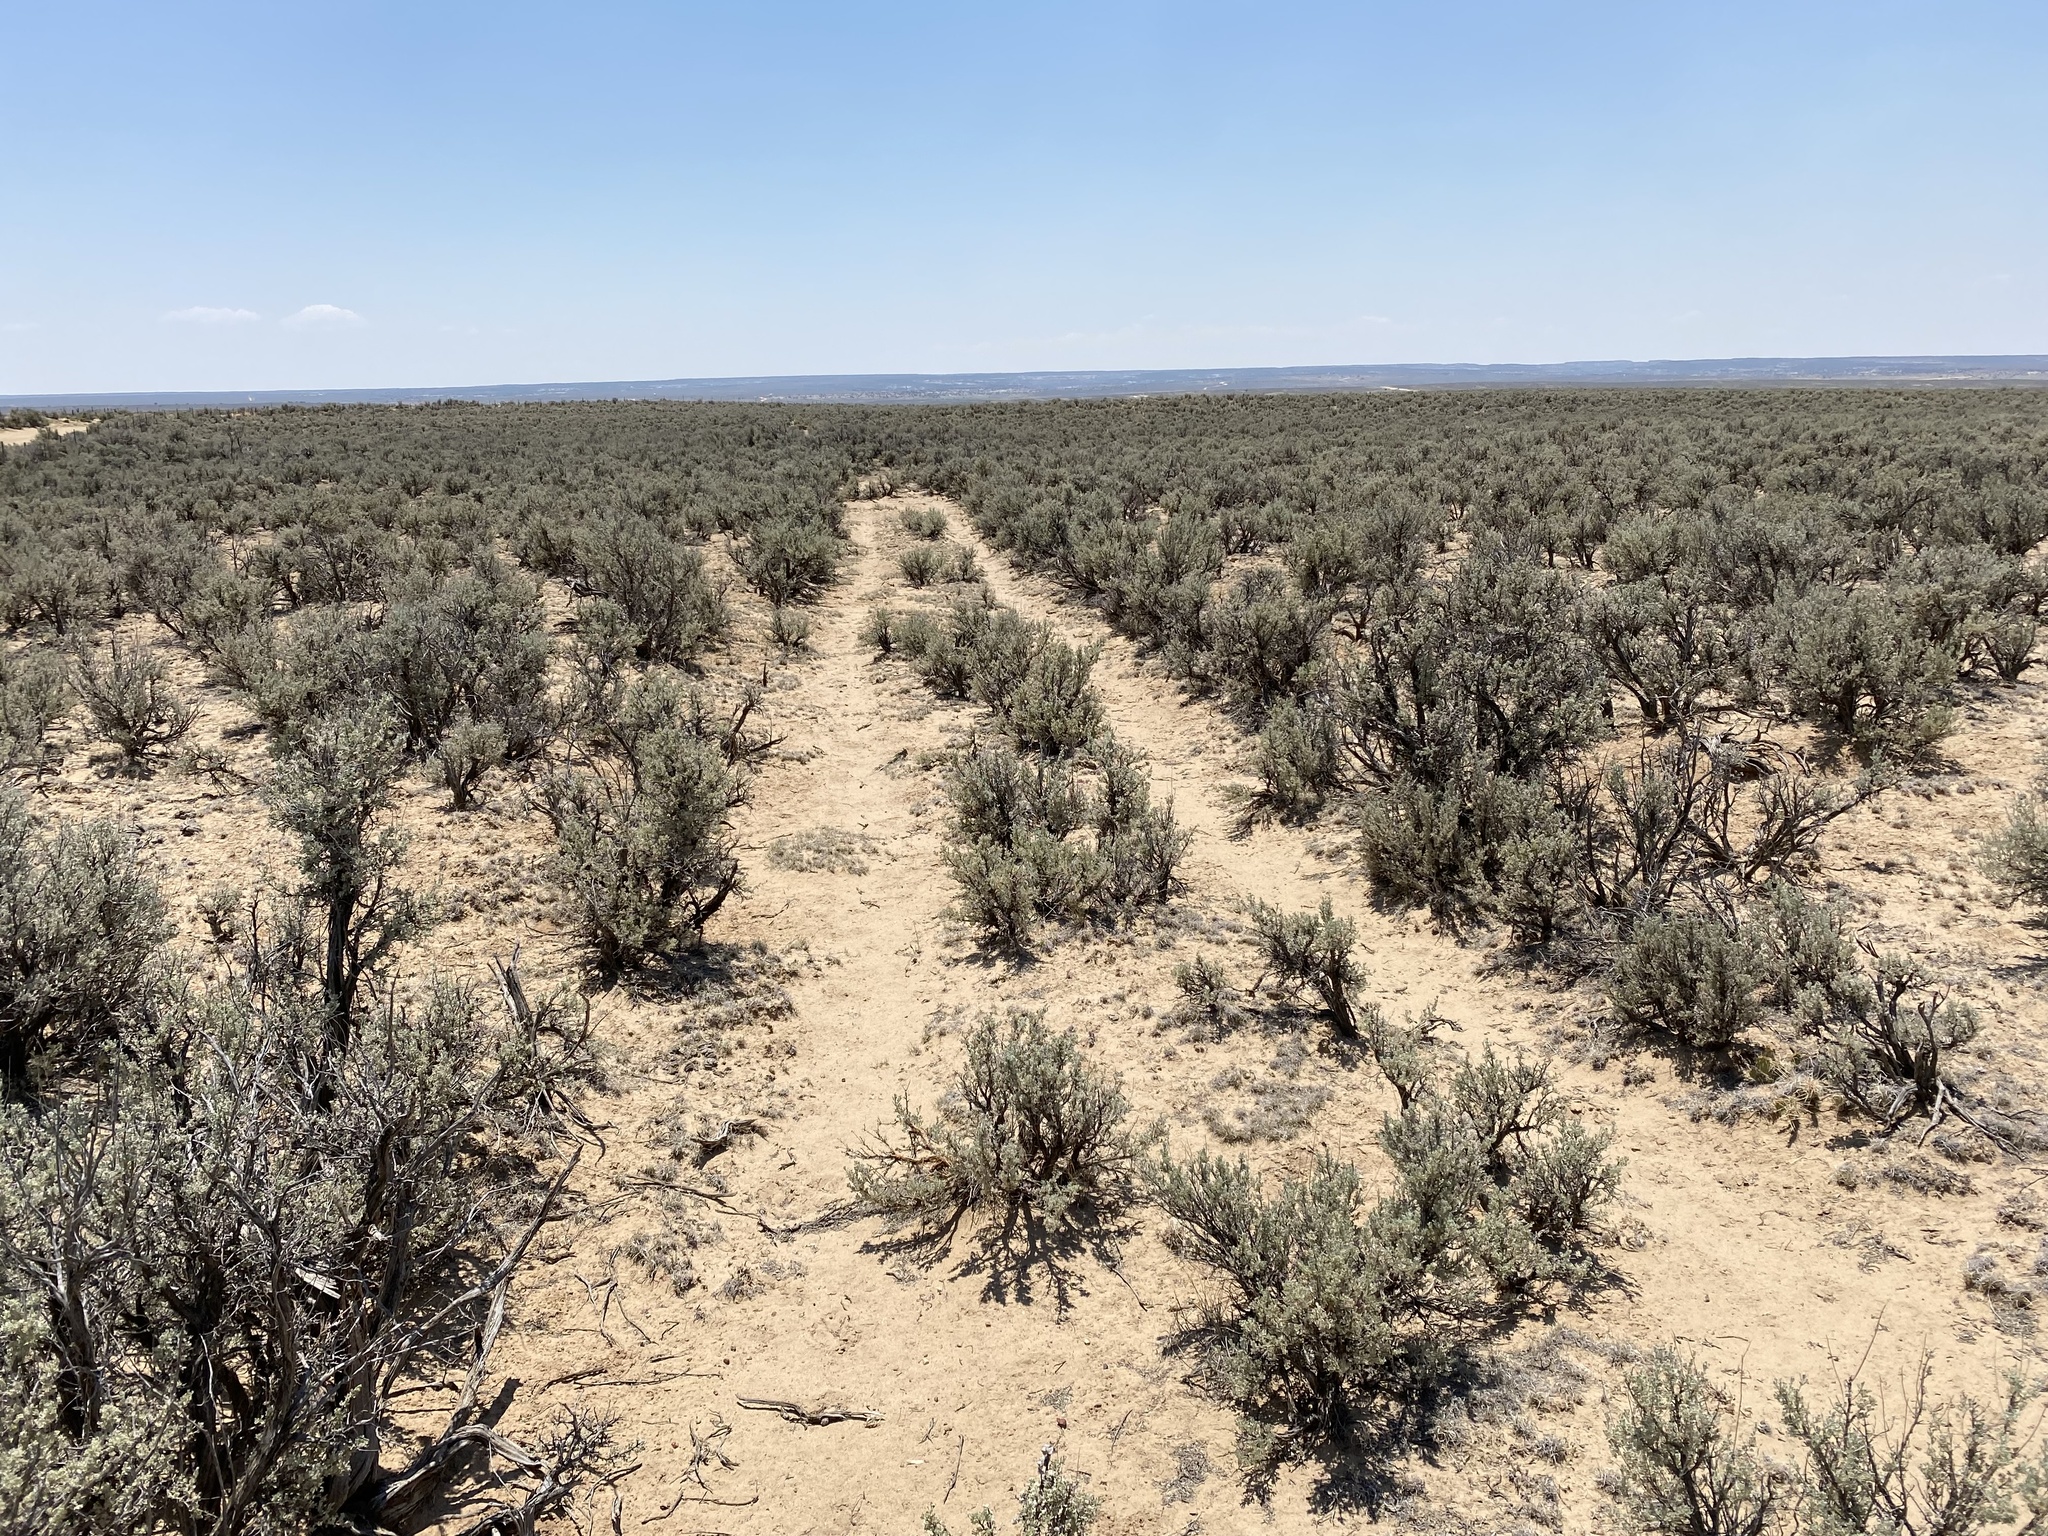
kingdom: Plantae
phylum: Tracheophyta
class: Magnoliopsida
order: Asterales
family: Asteraceae
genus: Artemisia
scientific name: Artemisia tridentata
